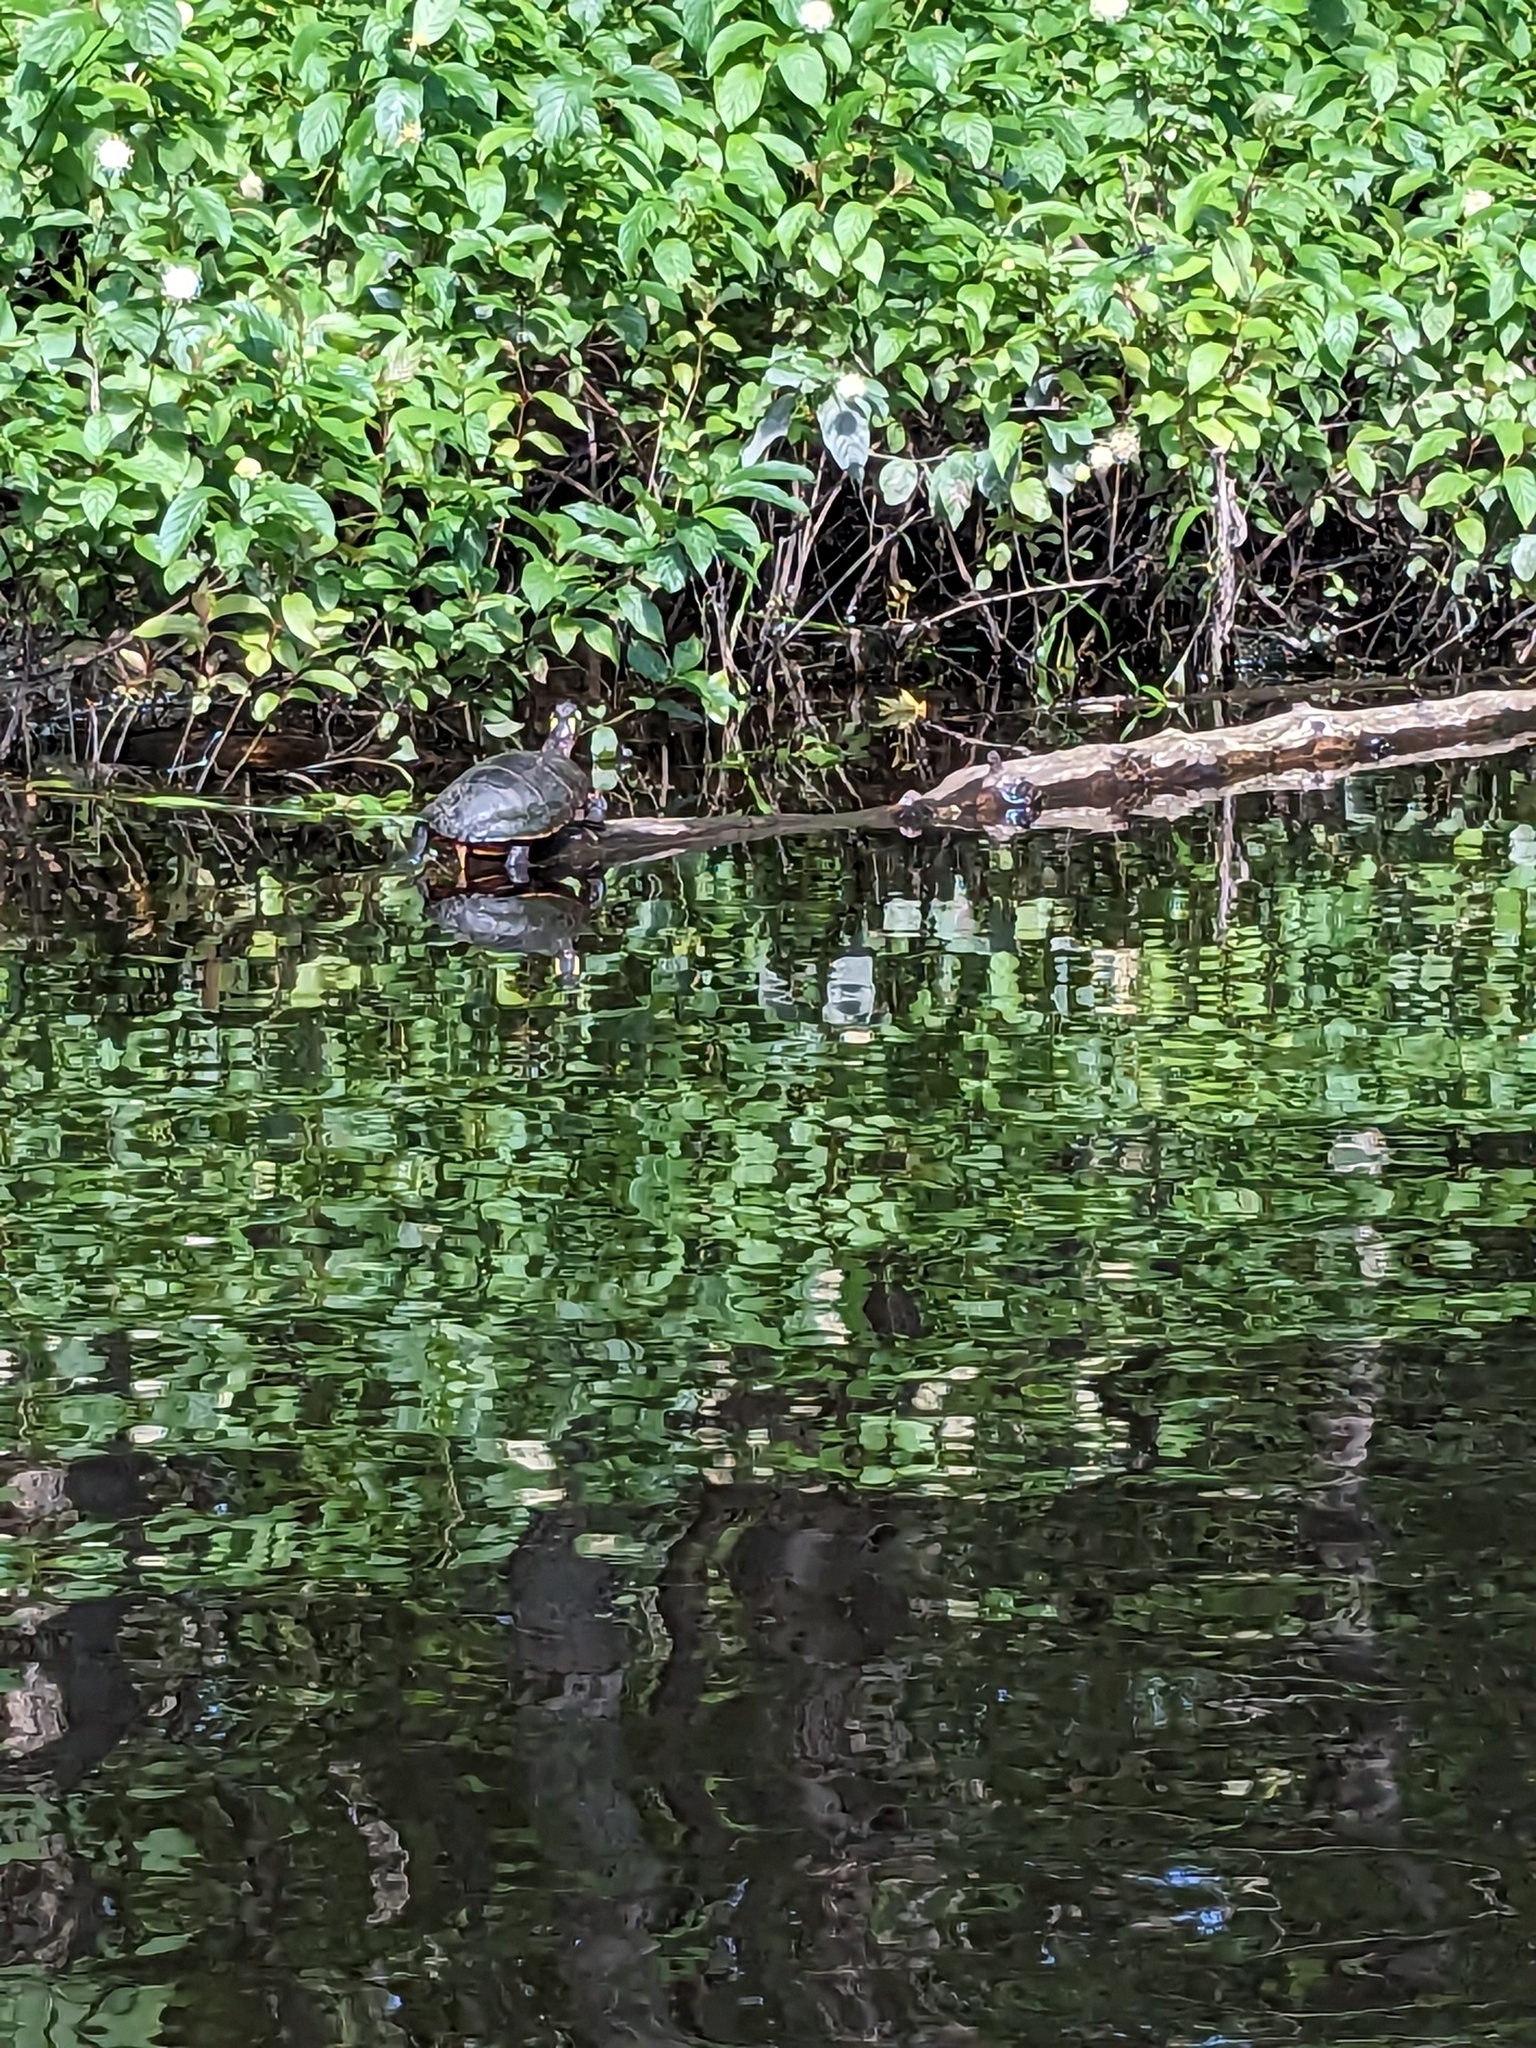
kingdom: Animalia
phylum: Chordata
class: Testudines
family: Emydidae
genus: Chrysemys
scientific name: Chrysemys picta
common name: Painted turtle
